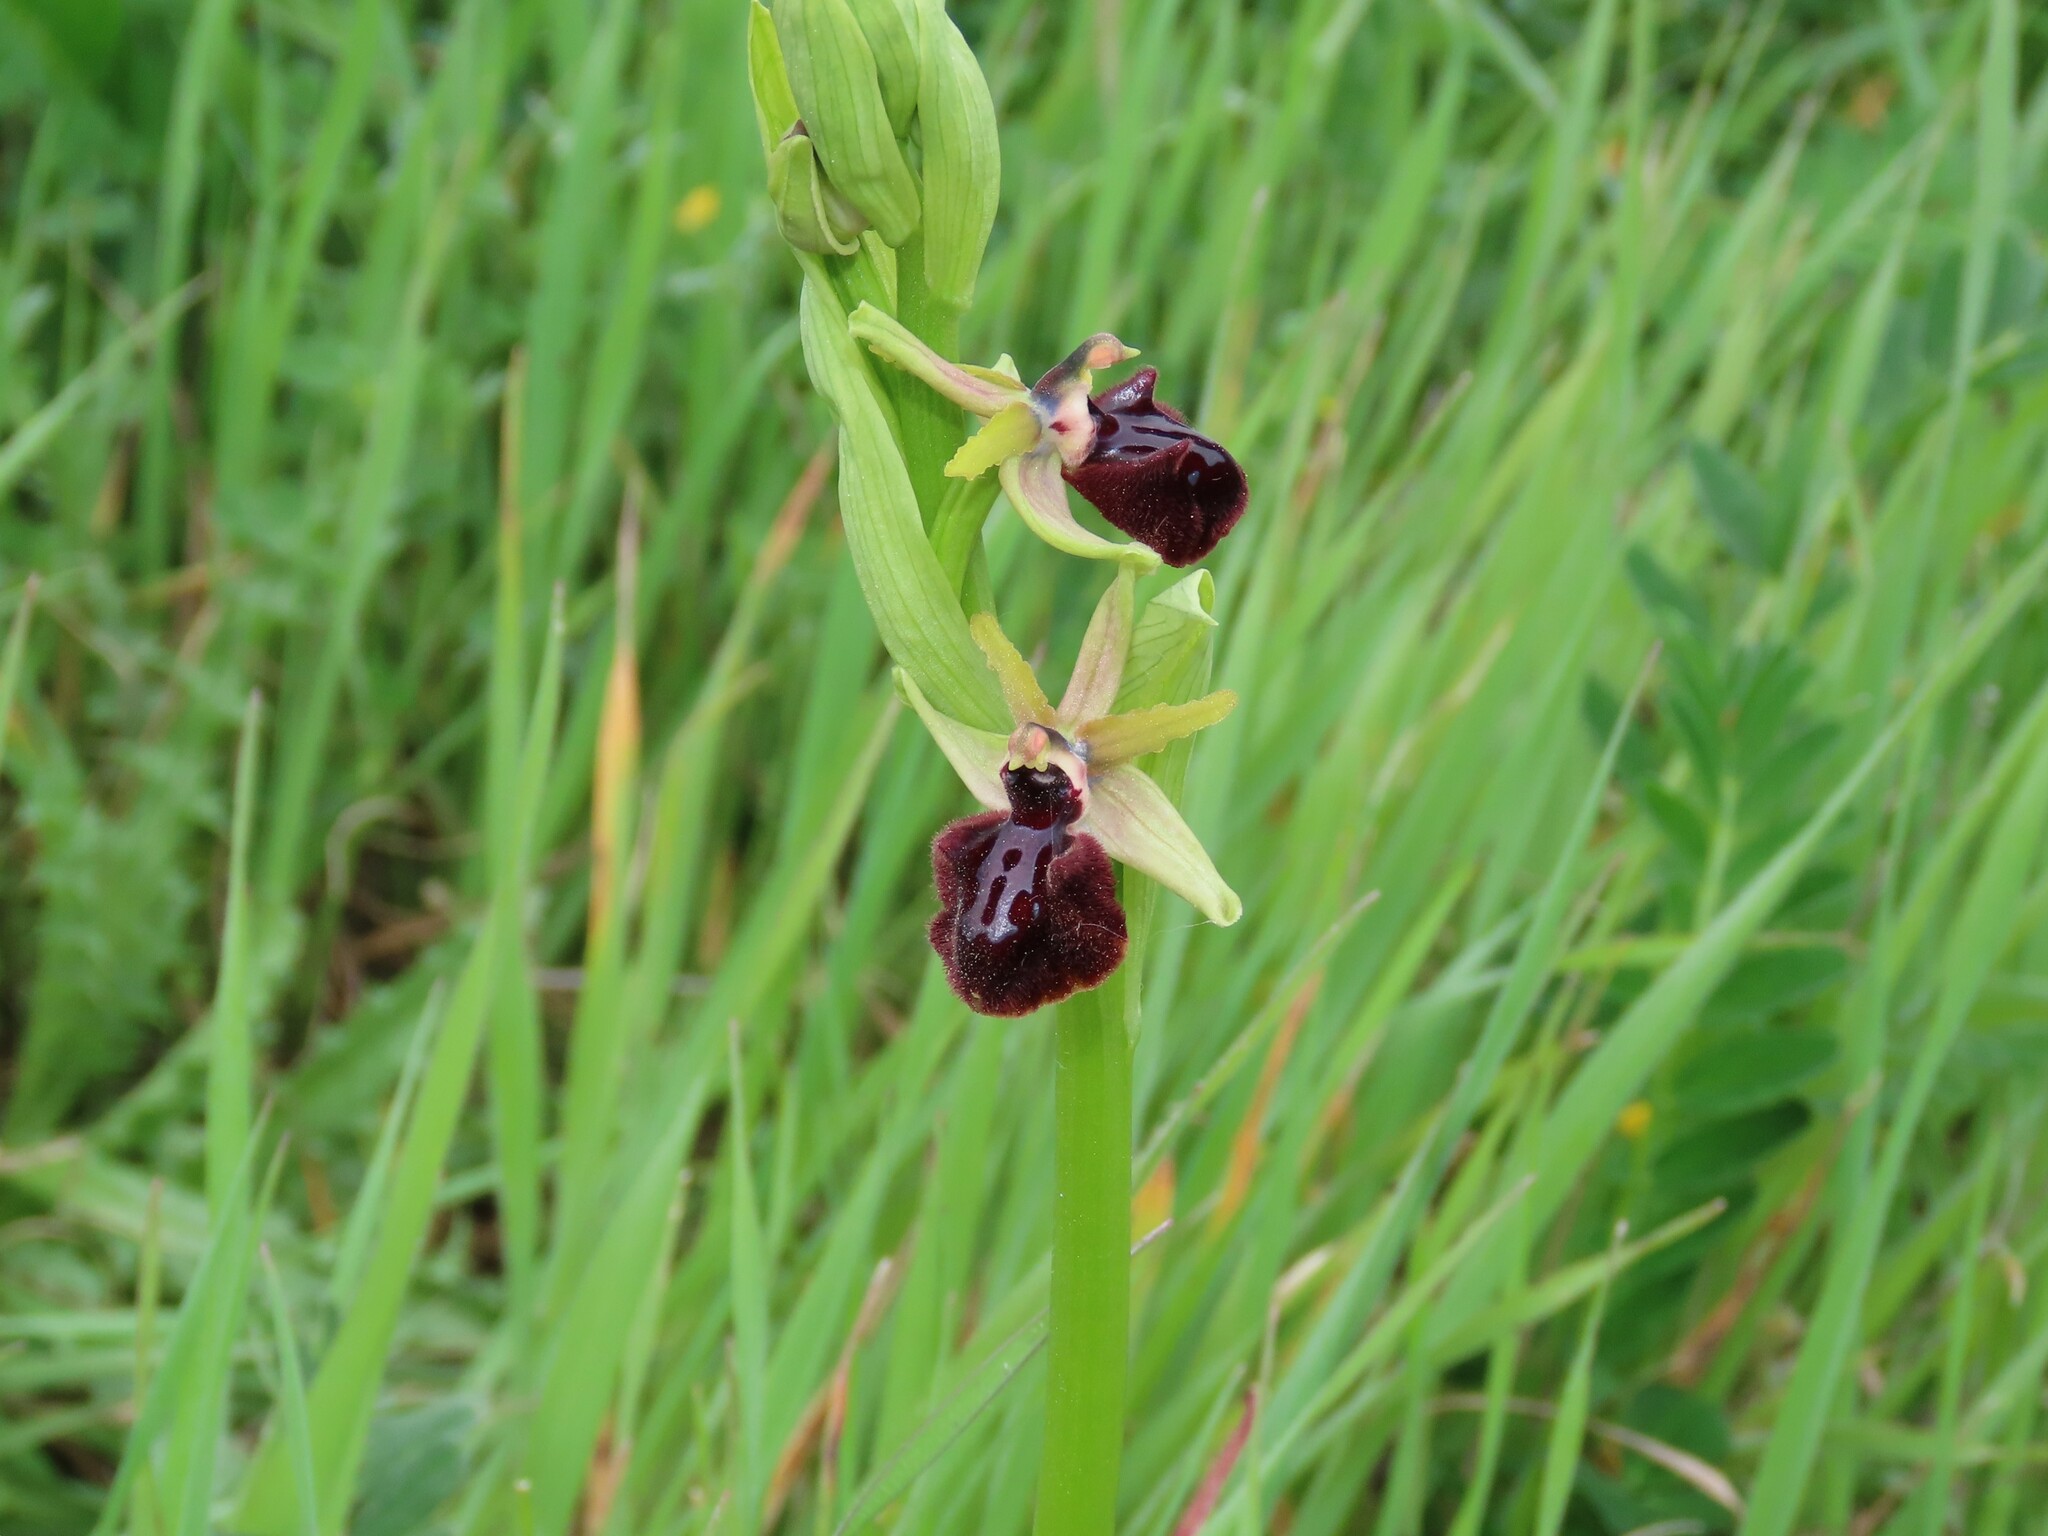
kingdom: Plantae
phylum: Tracheophyta
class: Liliopsida
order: Asparagales
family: Orchidaceae
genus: Ophrys
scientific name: Ophrys sphegodes
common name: Early spider-orchid
